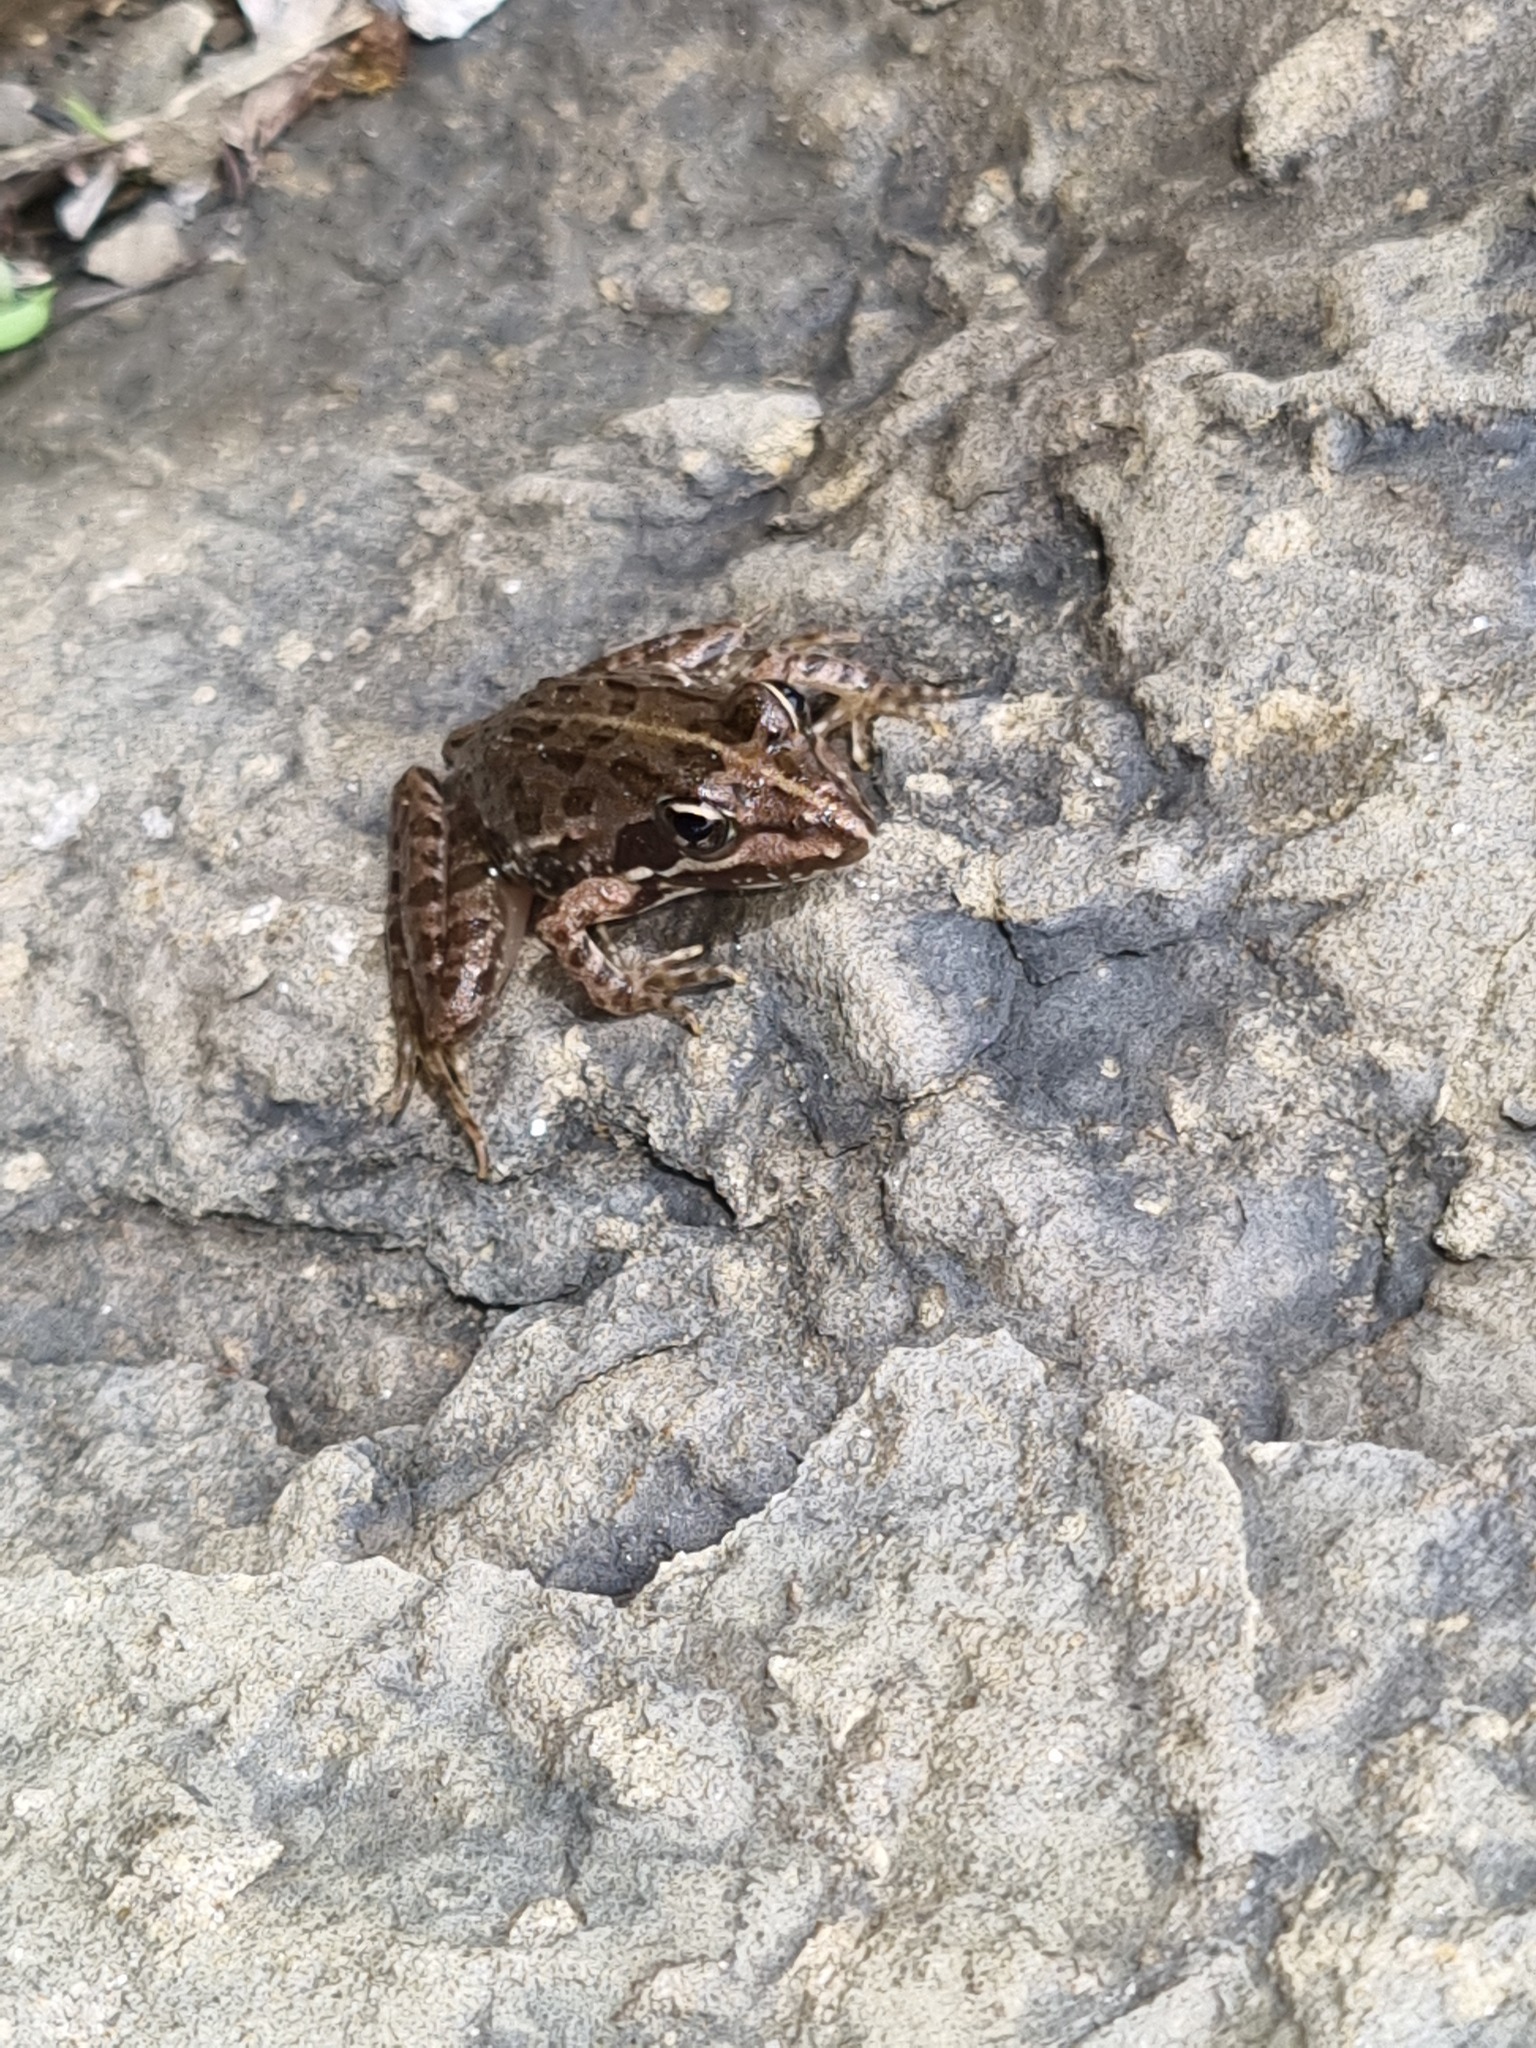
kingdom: Animalia
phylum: Chordata
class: Amphibia
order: Anura
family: Pyxicephalidae
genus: Amietia
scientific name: Amietia delalandii
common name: Delalande's river frog
